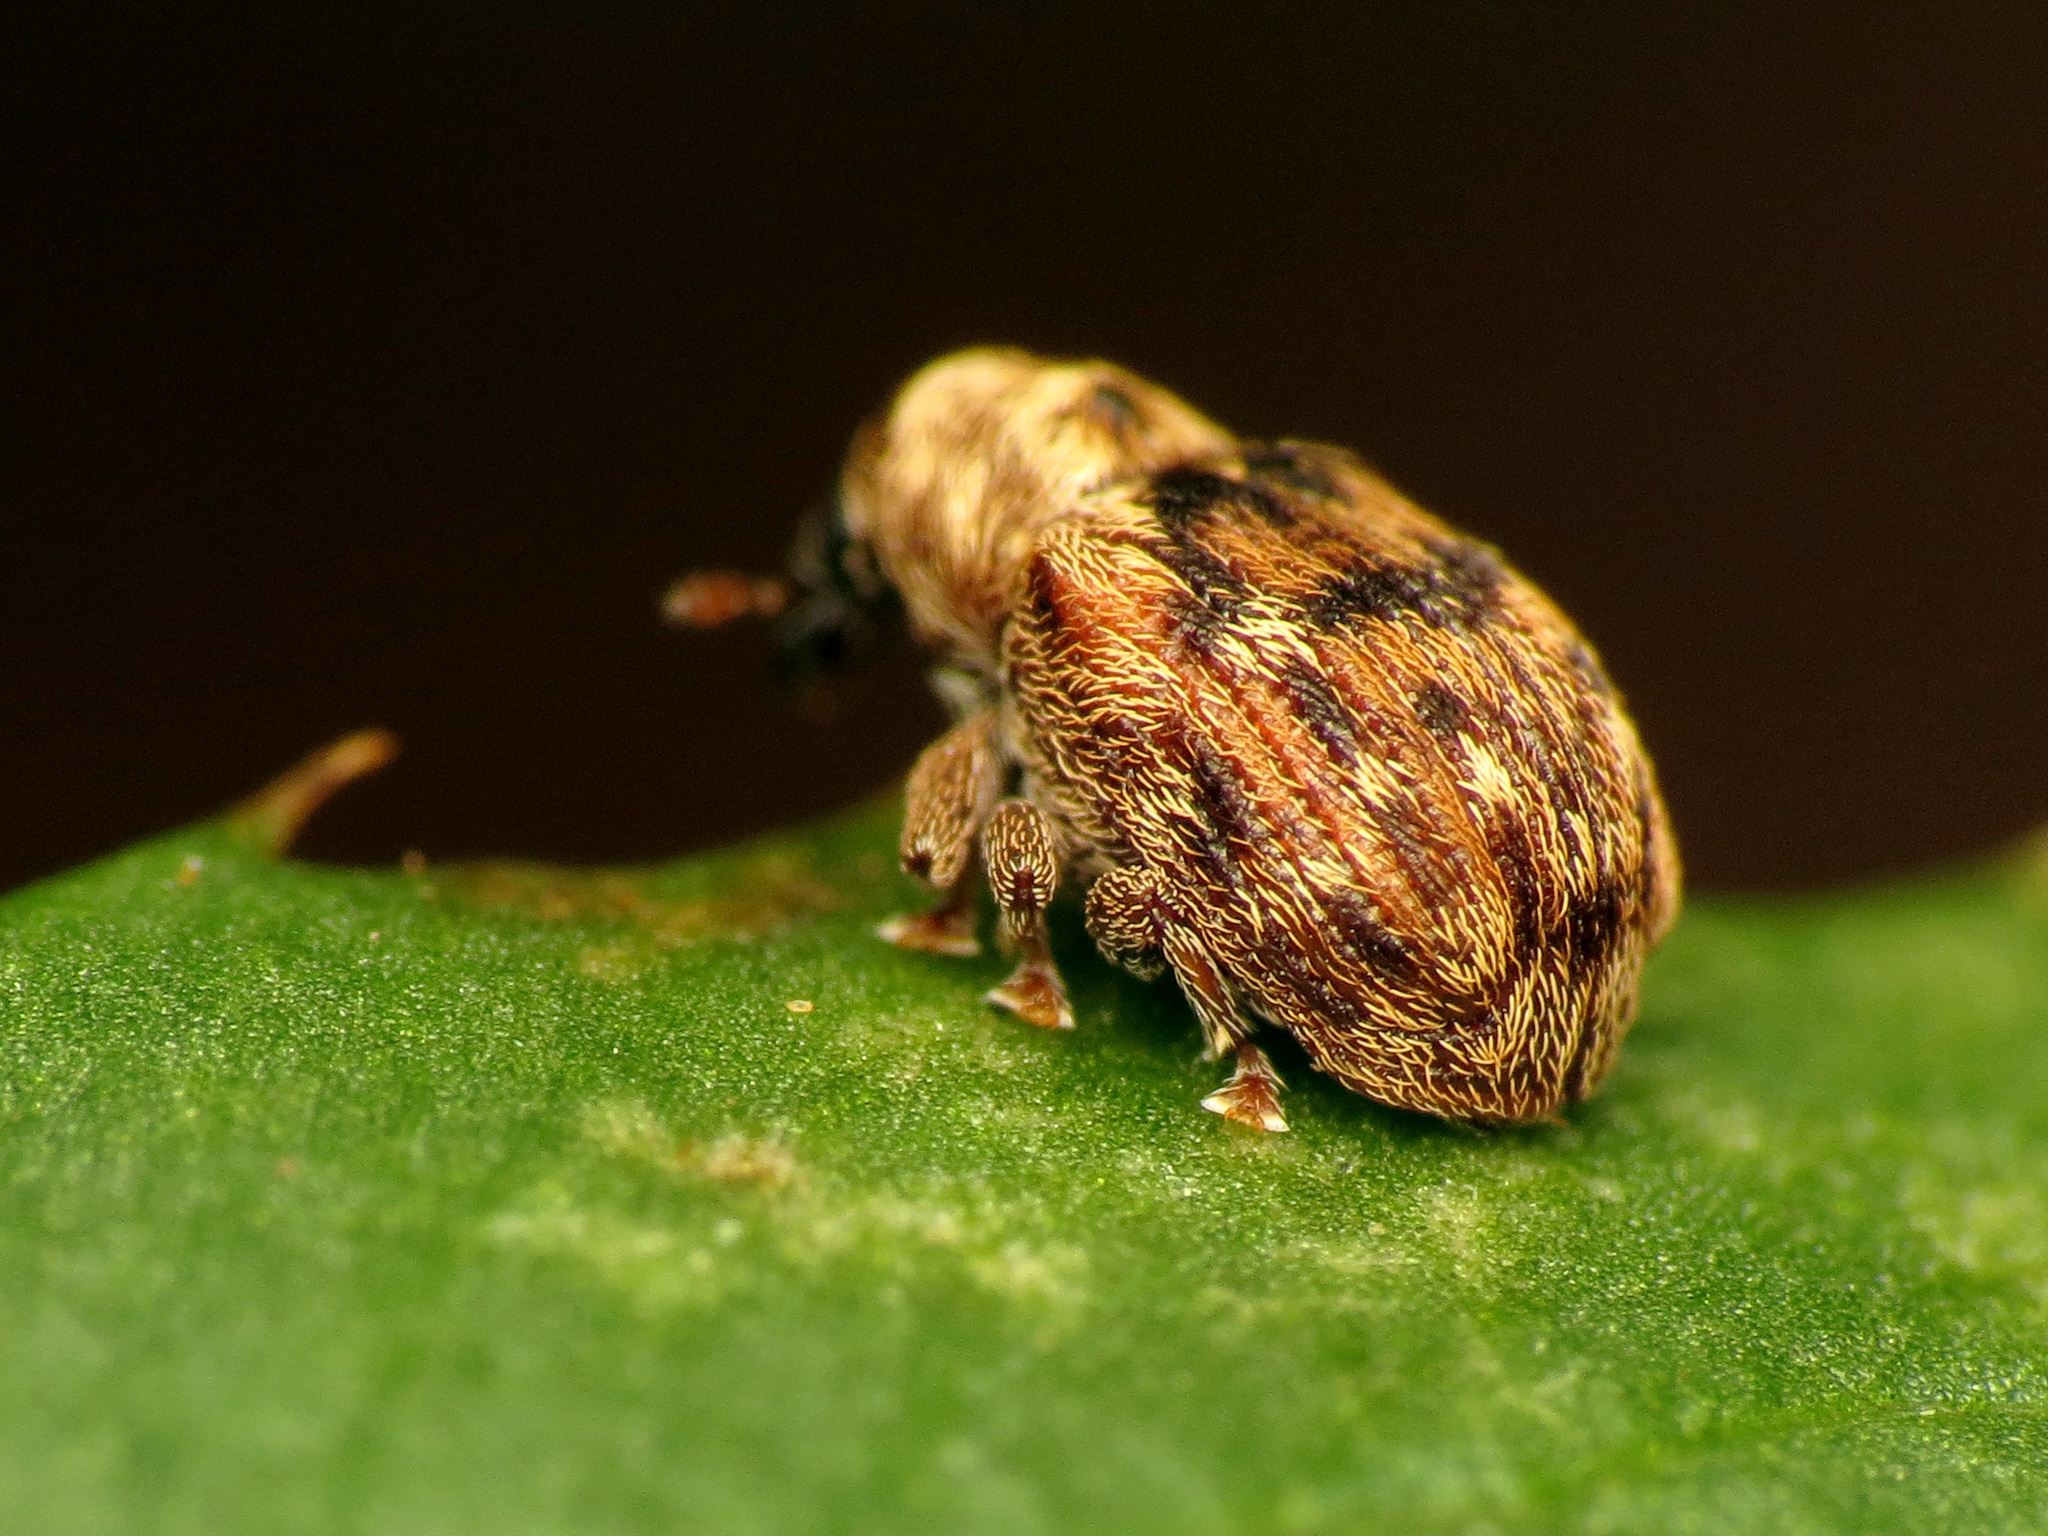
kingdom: Animalia
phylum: Arthropoda
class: Insecta
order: Coleoptera
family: Curculionidae
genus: Piazorhinus
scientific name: Piazorhinus pictus
